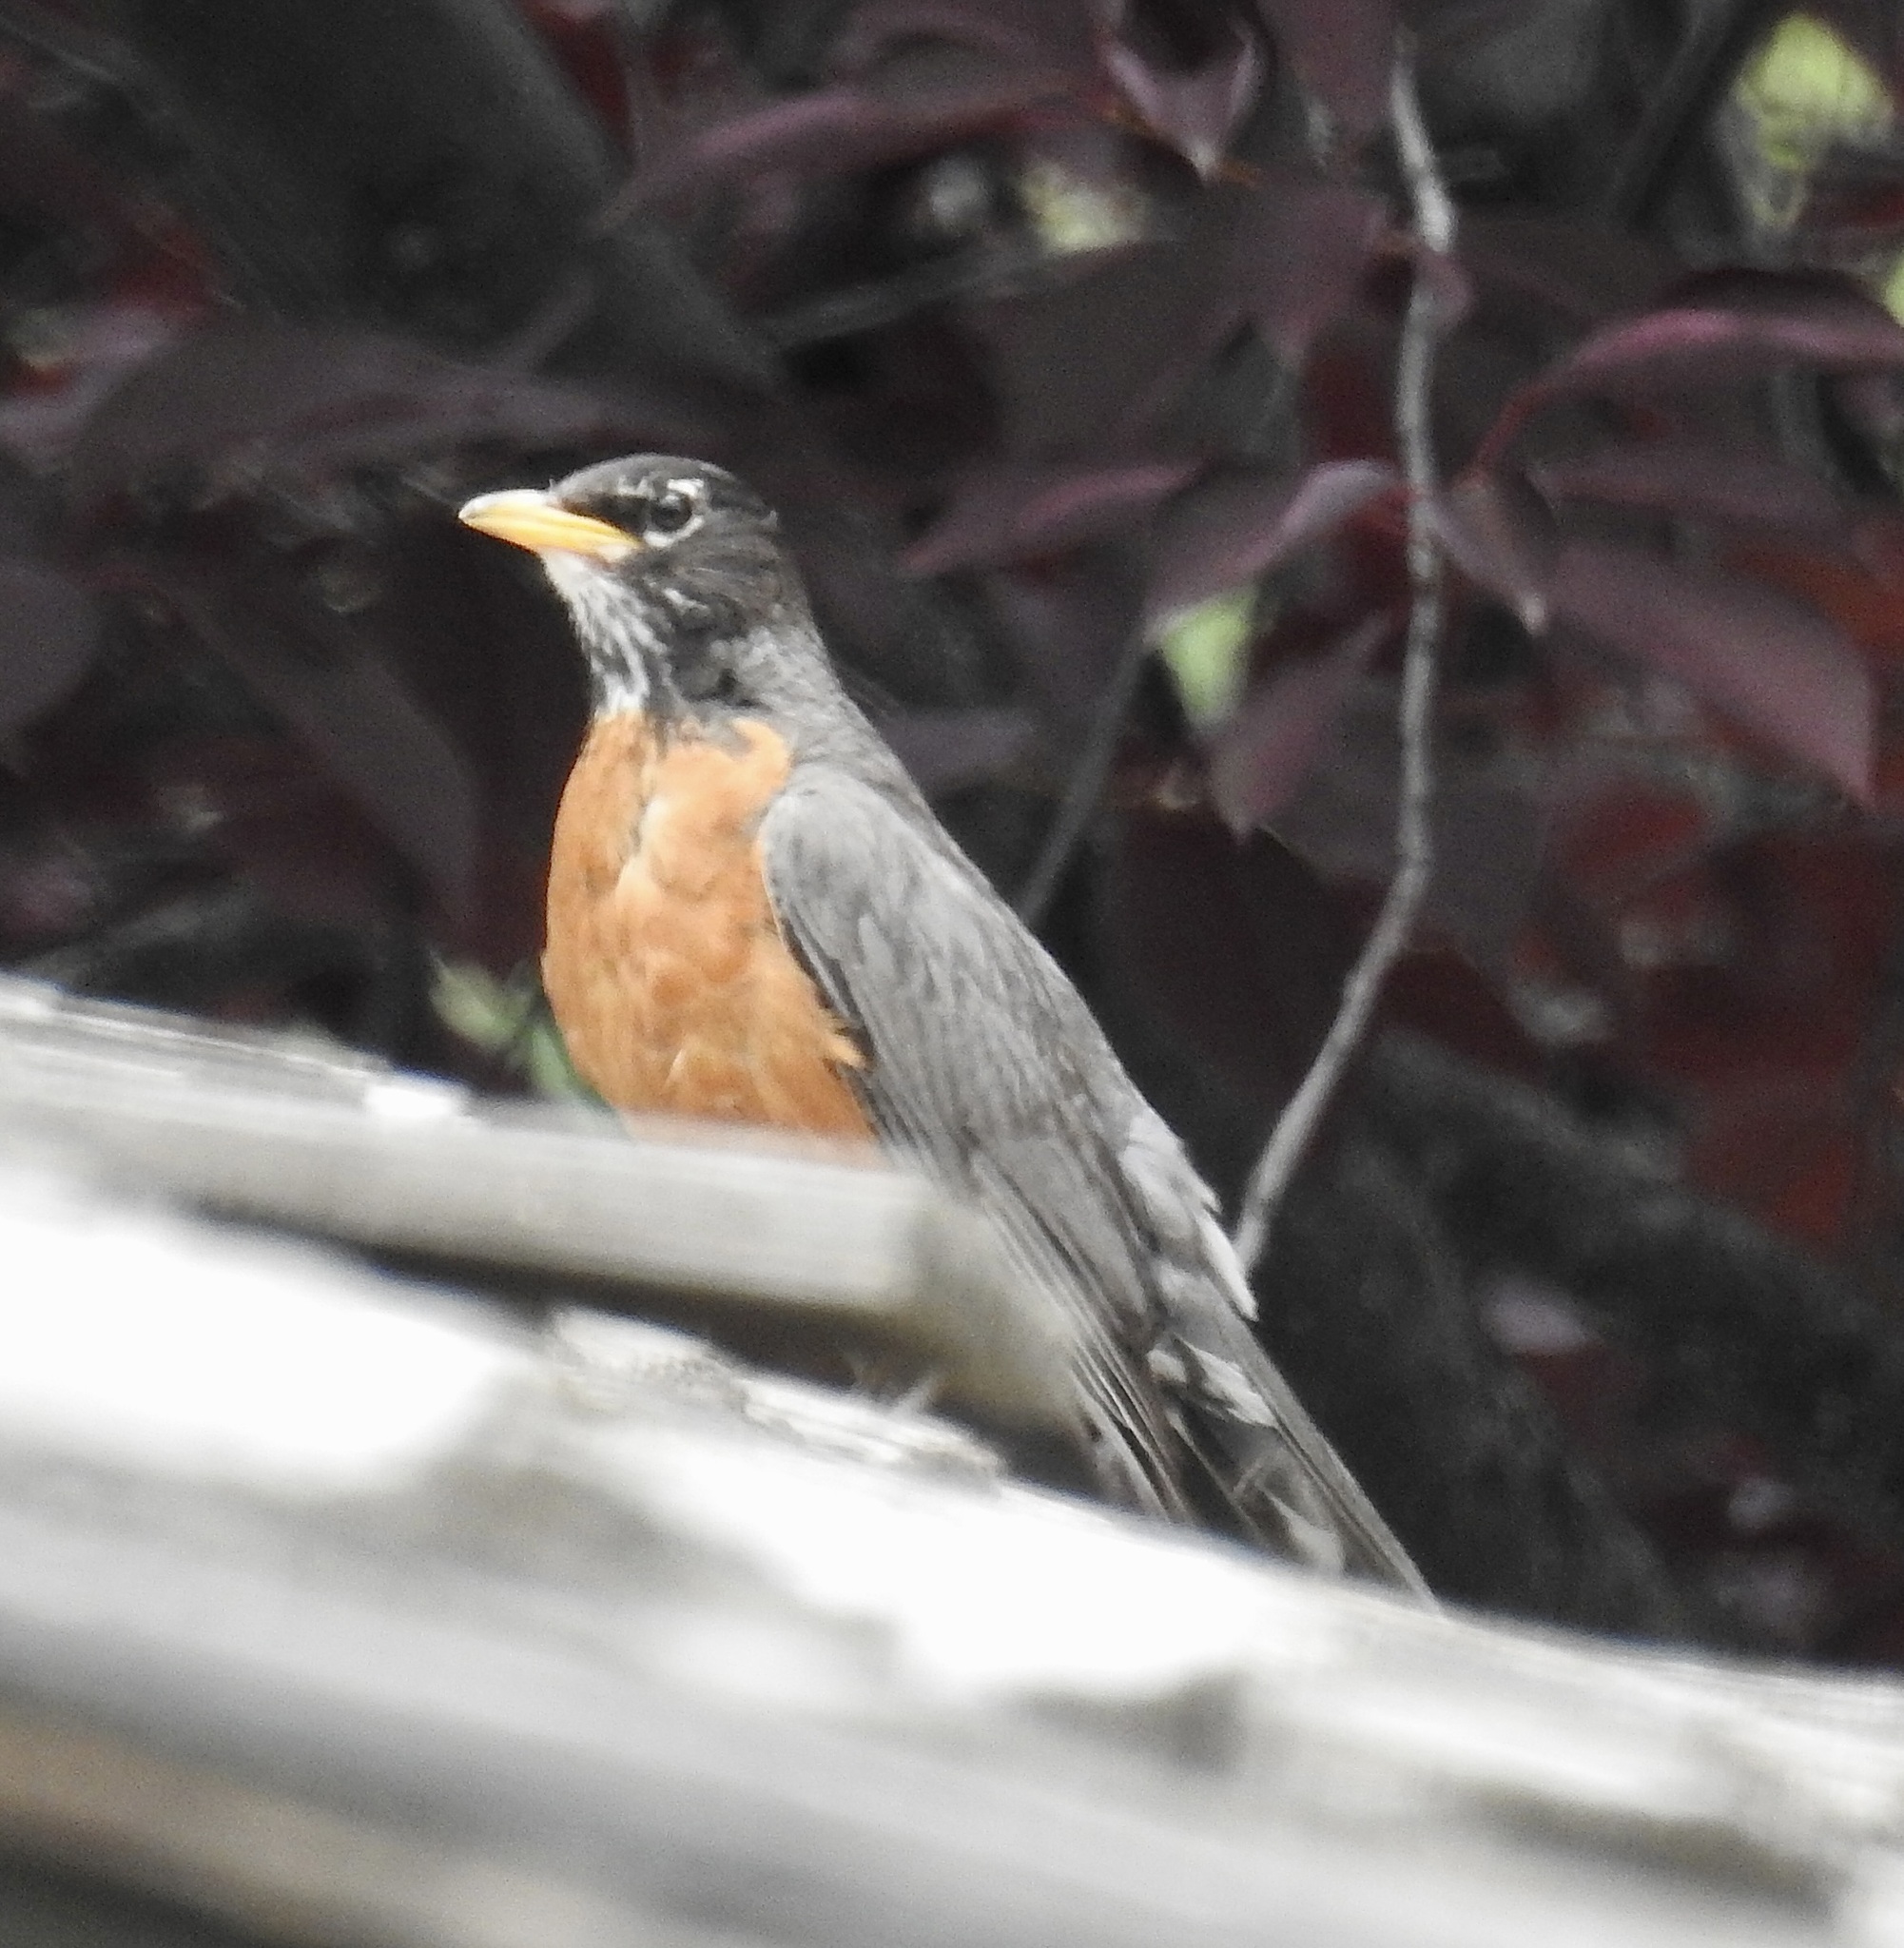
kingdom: Animalia
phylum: Chordata
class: Aves
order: Passeriformes
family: Turdidae
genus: Turdus
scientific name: Turdus migratorius
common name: American robin
